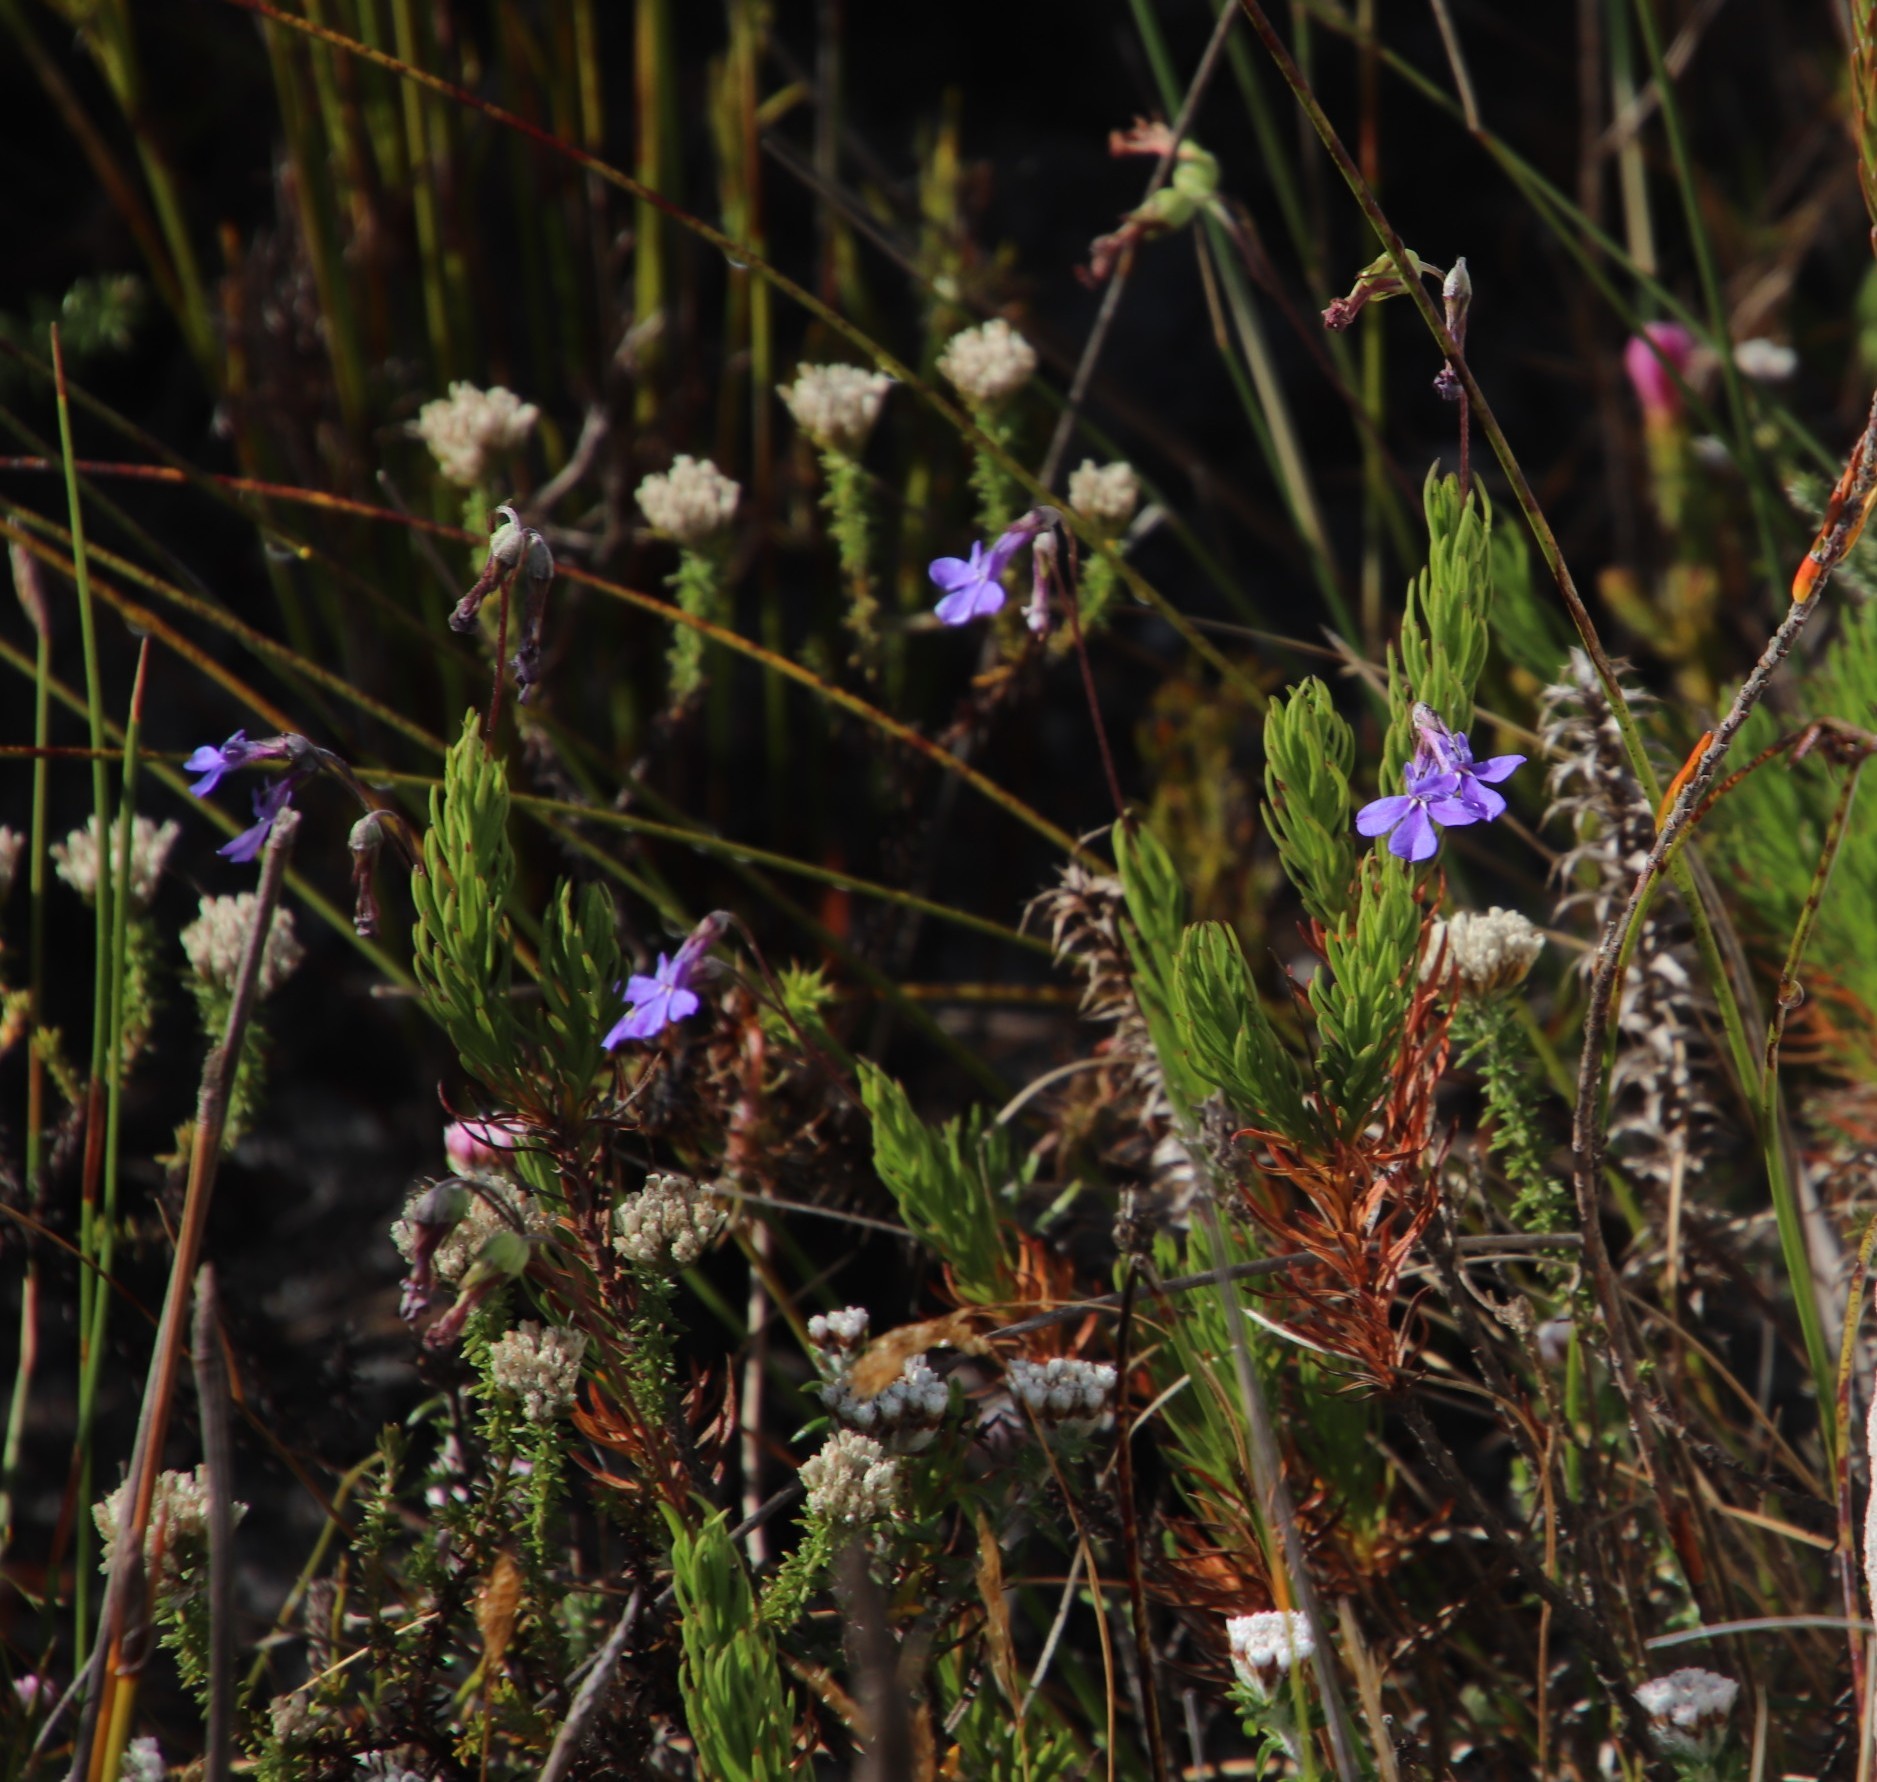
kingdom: Plantae
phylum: Tracheophyta
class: Magnoliopsida
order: Asterales
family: Campanulaceae
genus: Lobelia
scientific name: Lobelia pinifolia
